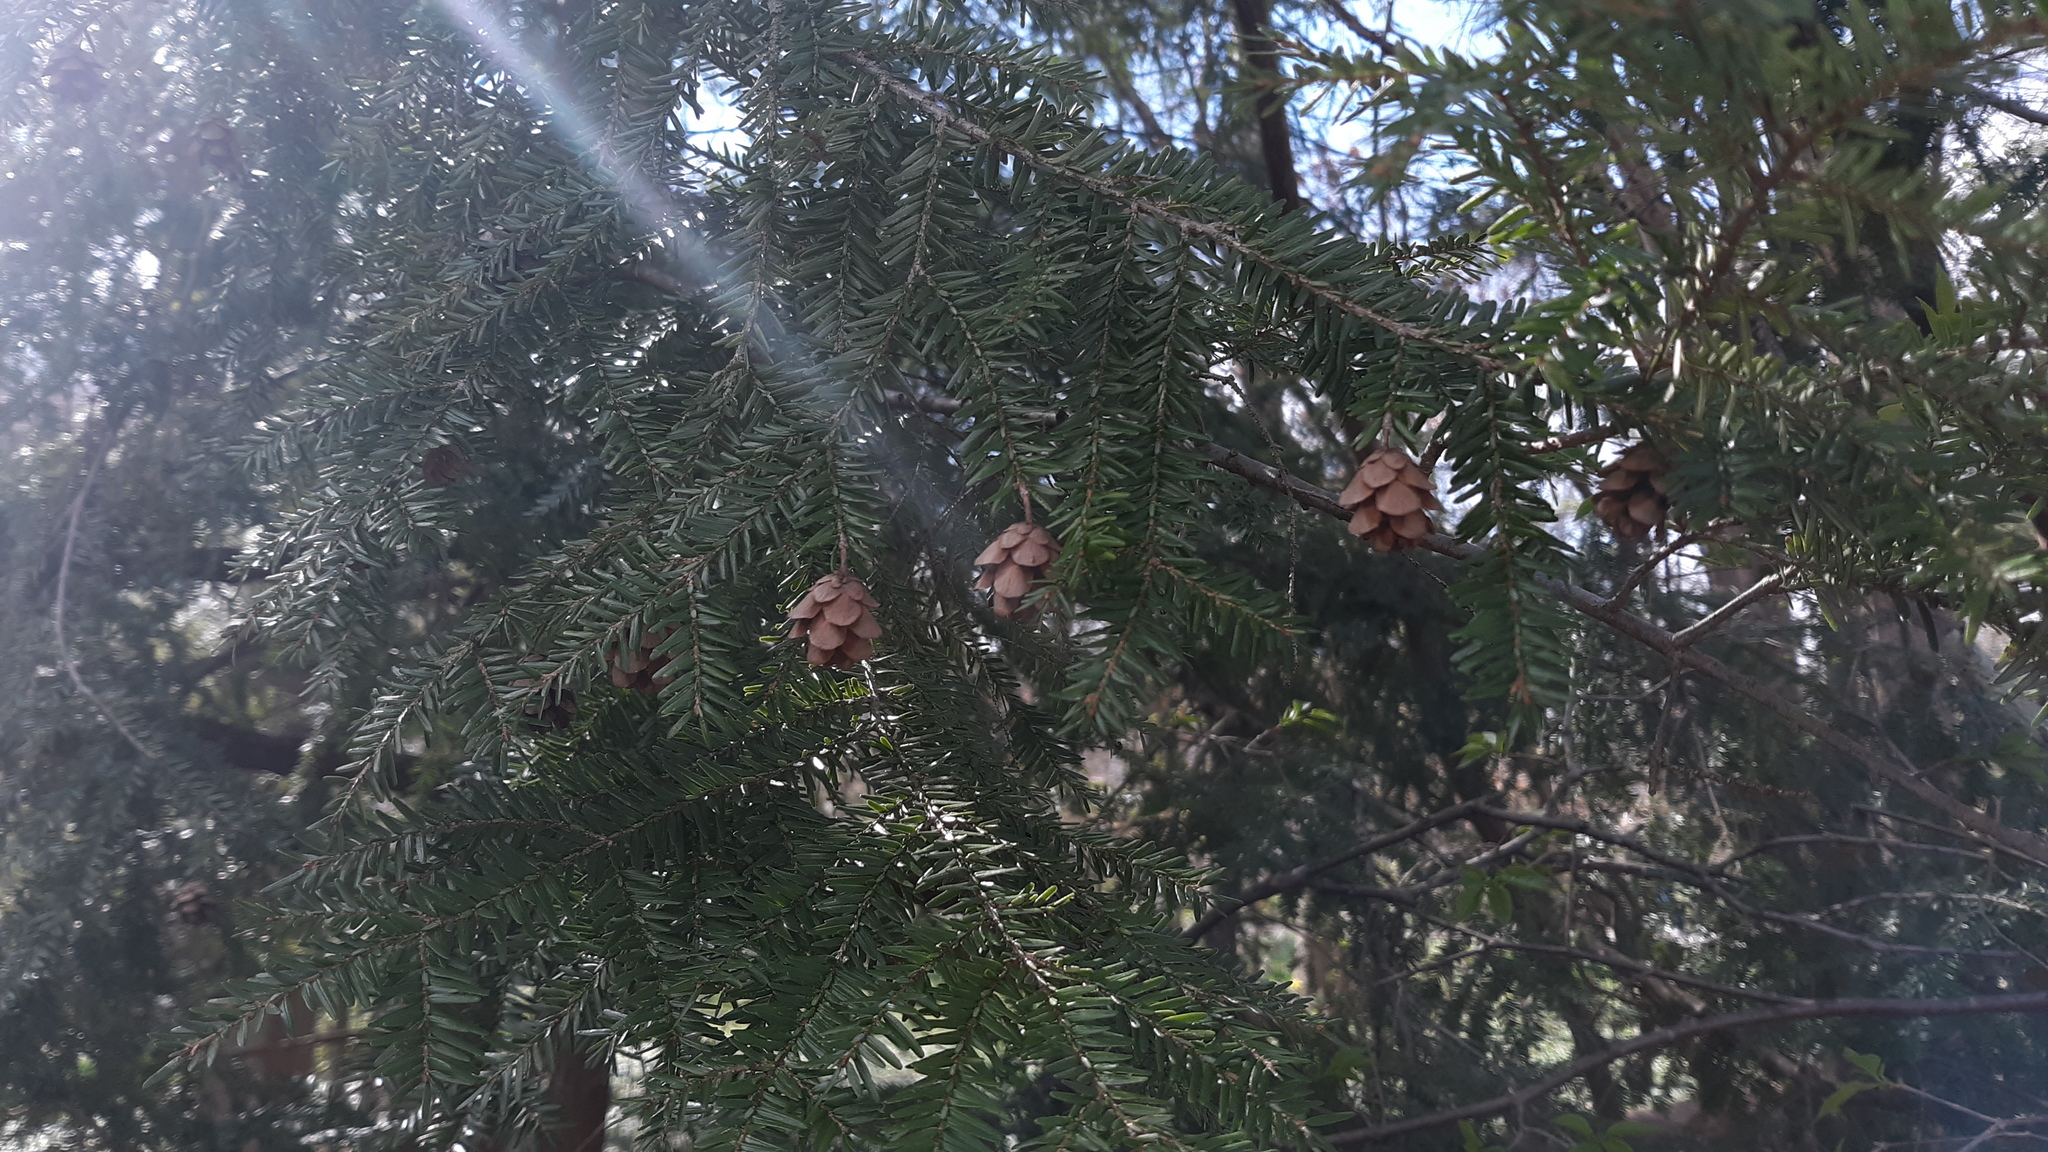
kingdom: Plantae
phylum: Tracheophyta
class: Pinopsida
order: Pinales
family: Pinaceae
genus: Tsuga
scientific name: Tsuga canadensis
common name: Eastern hemlock
